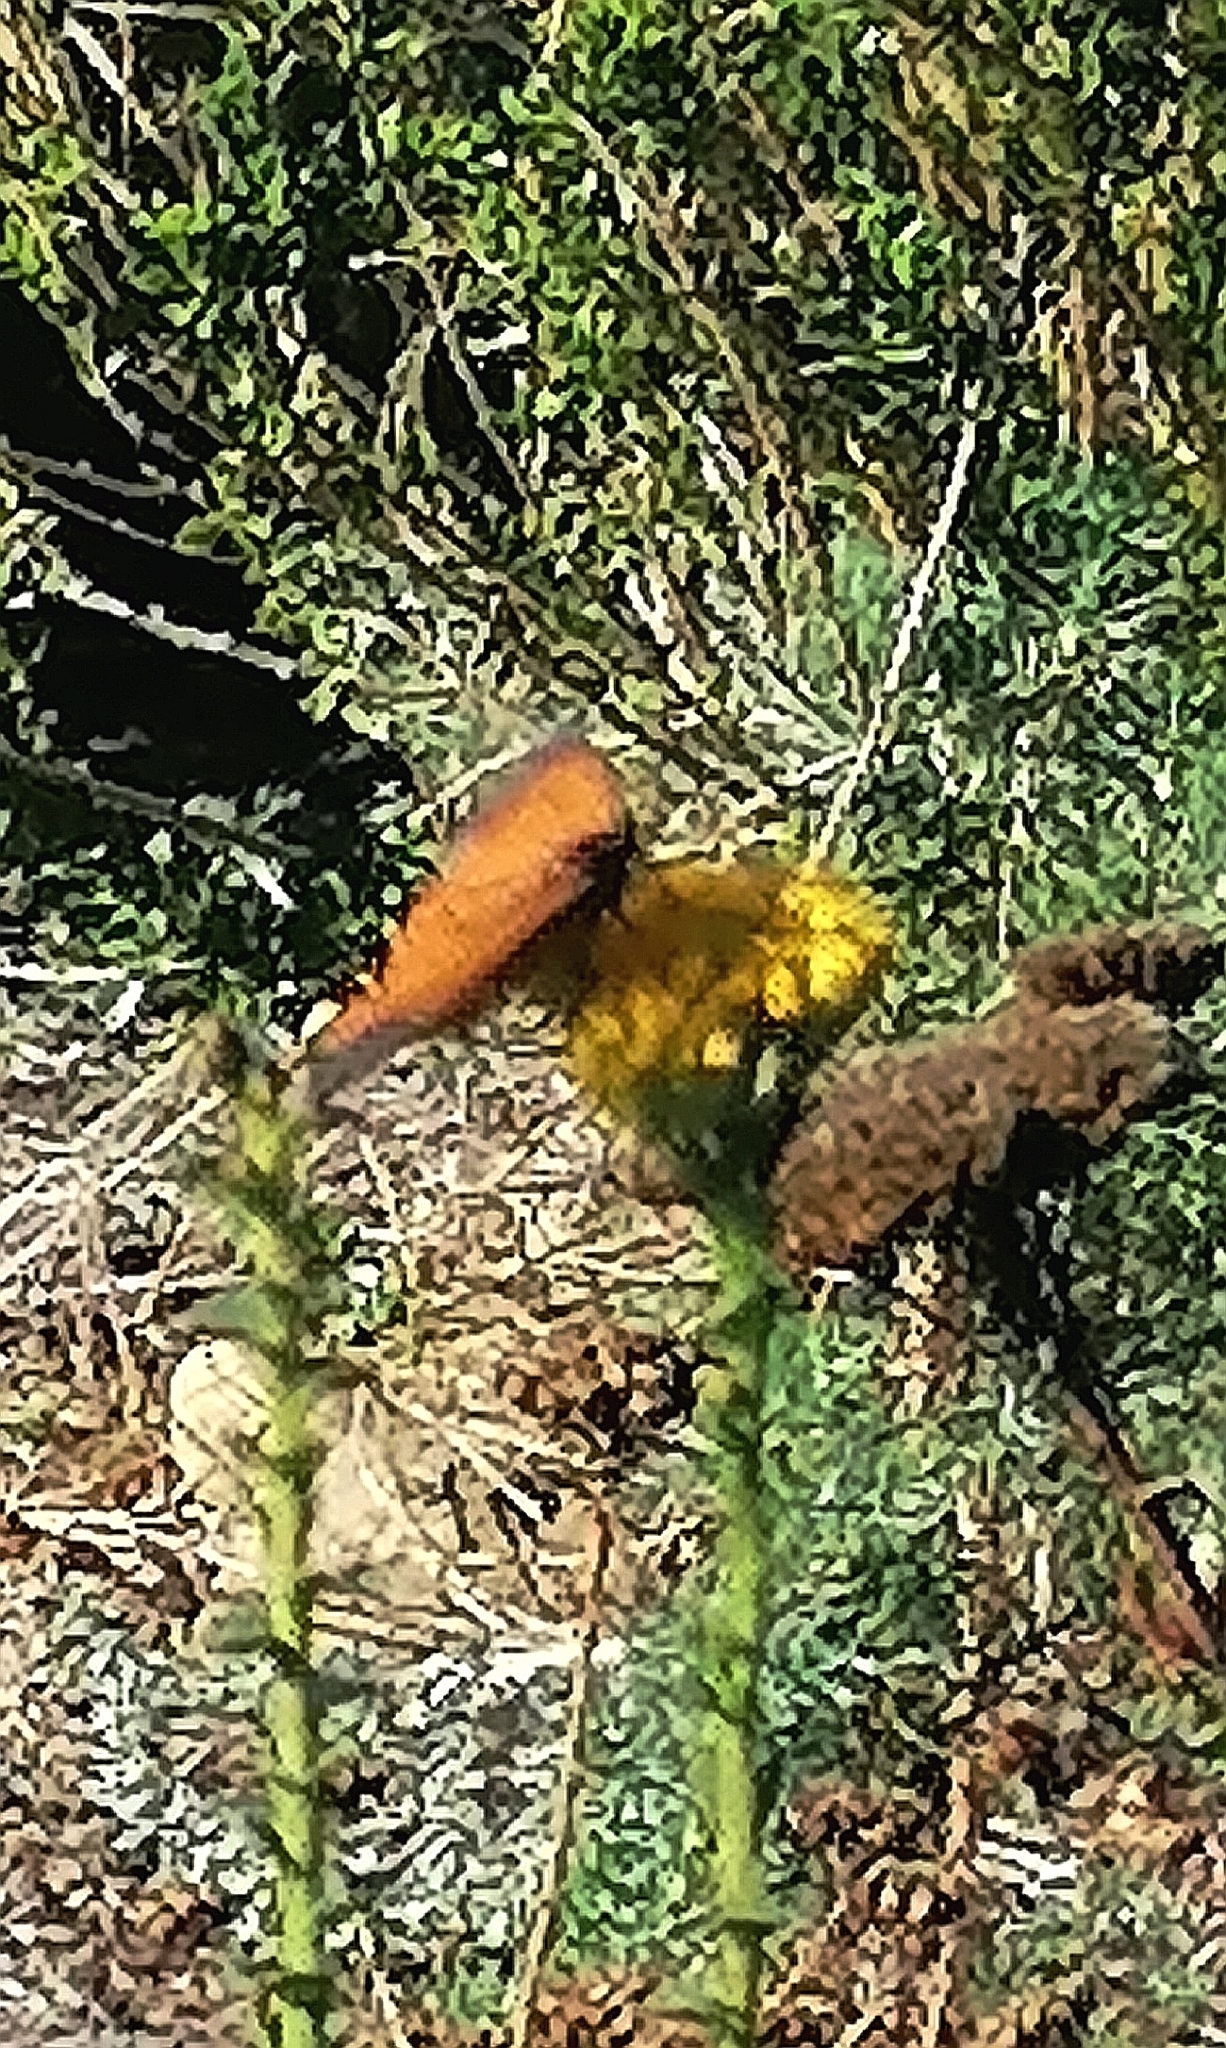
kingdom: Animalia
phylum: Arthropoda
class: Insecta
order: Lepidoptera
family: Nymphalidae
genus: Acraea
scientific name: Acraea horta
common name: Garden acraea
